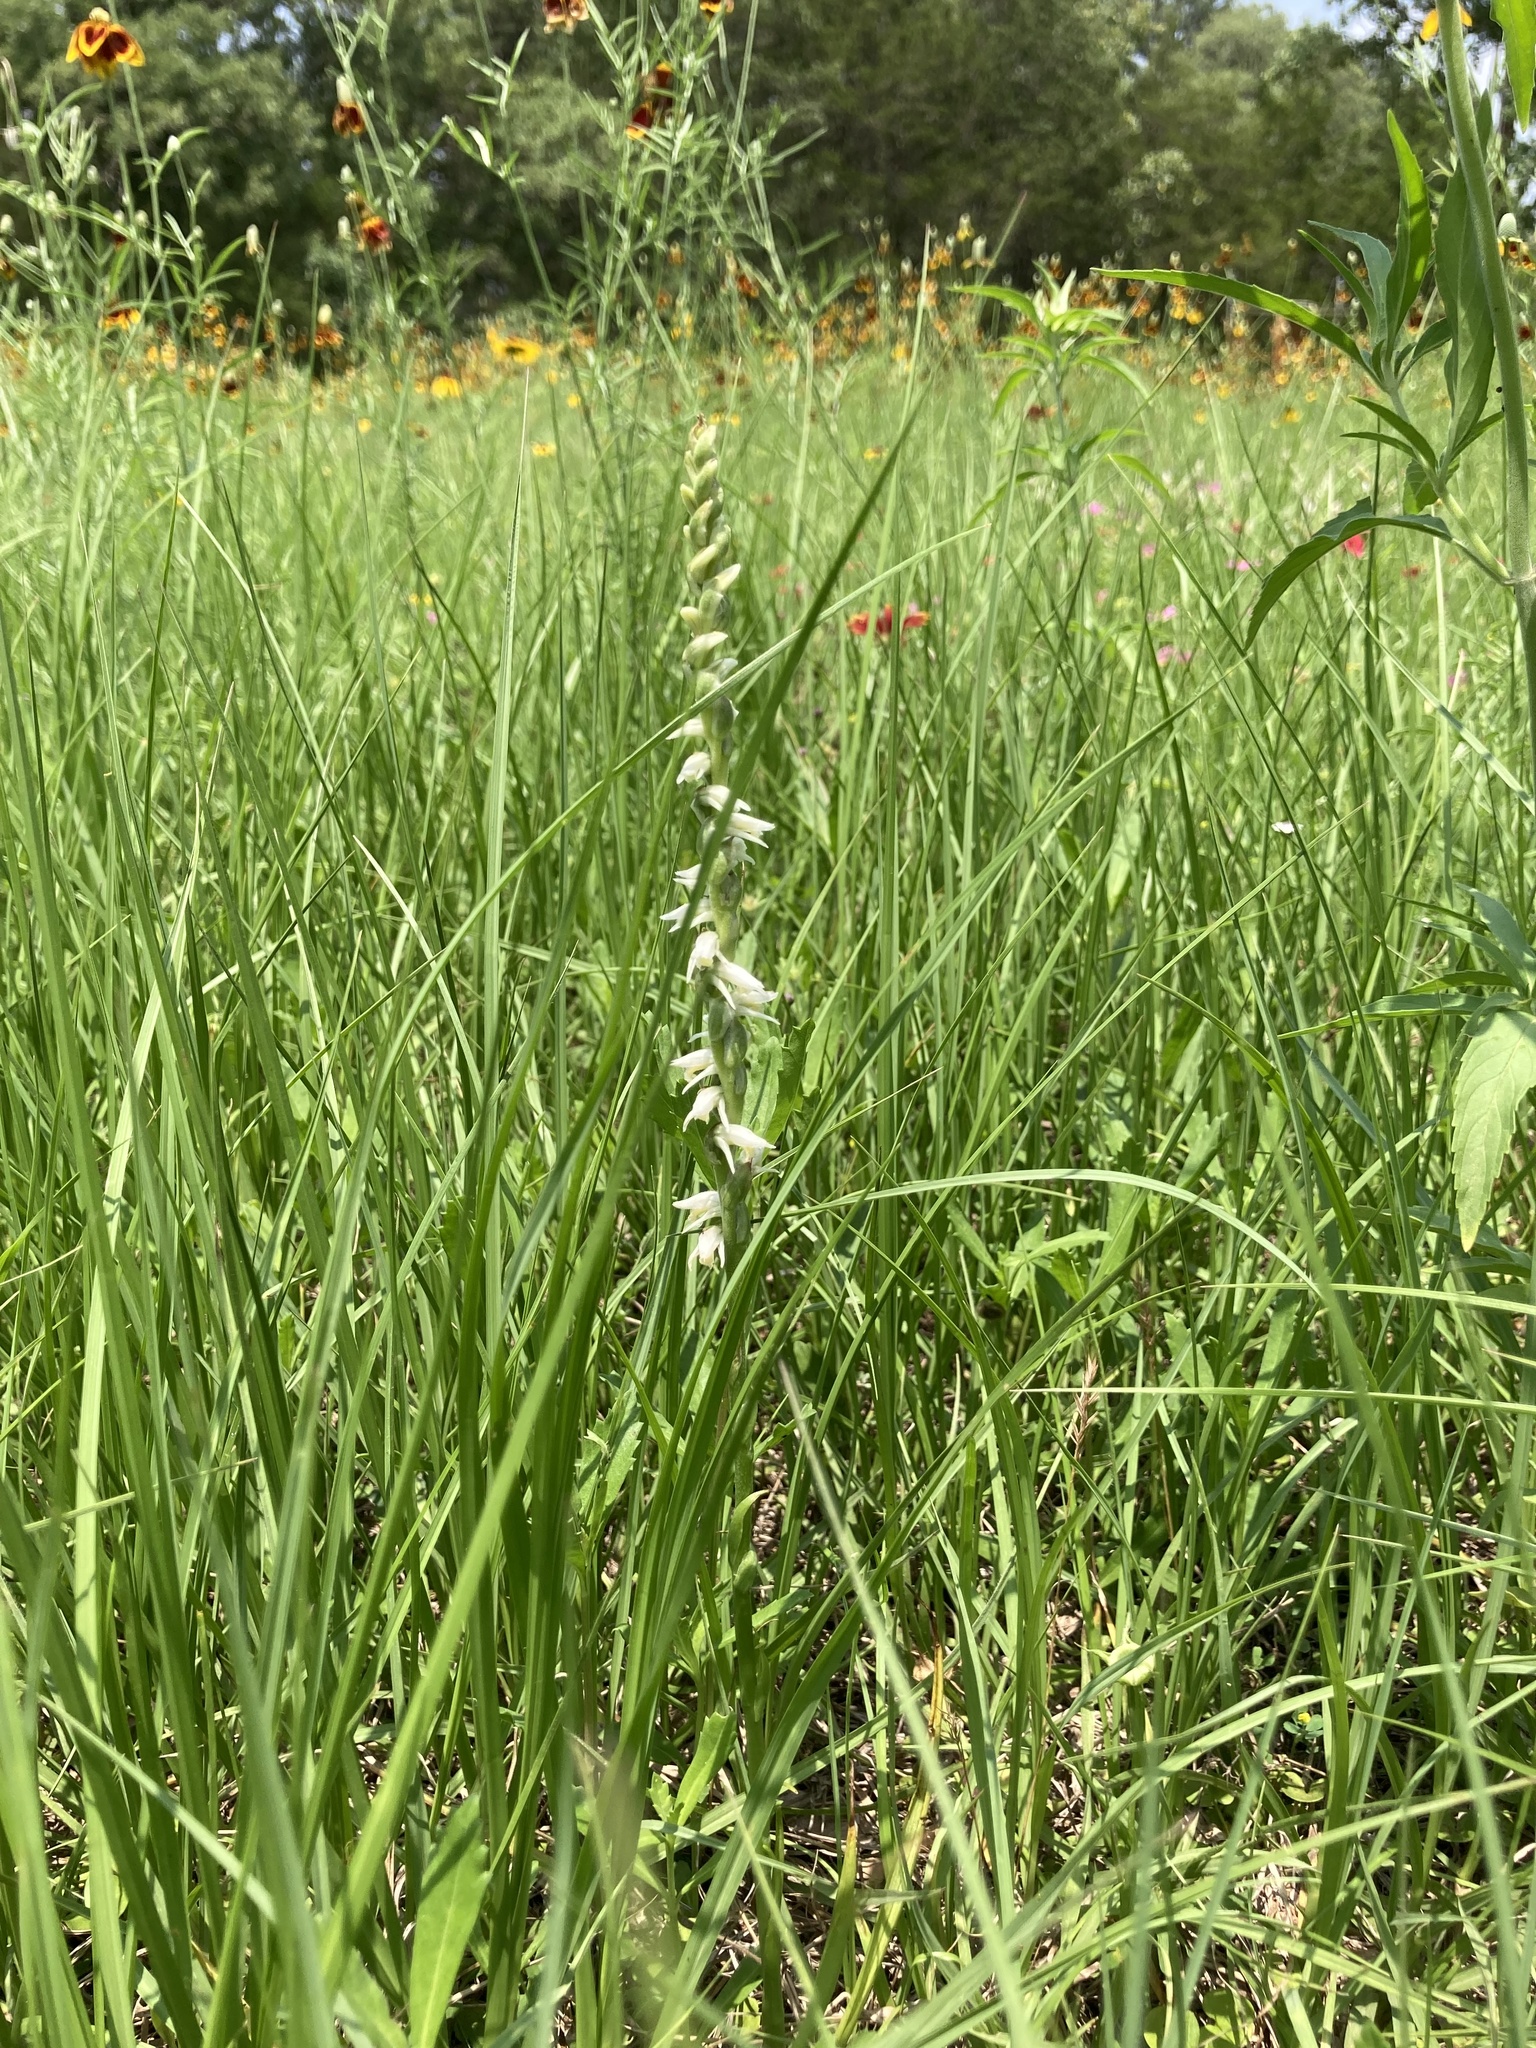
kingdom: Plantae
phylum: Tracheophyta
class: Liliopsida
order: Asparagales
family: Orchidaceae
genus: Spiranthes
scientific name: Spiranthes vernalis
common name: Spring ladies'-tresses
